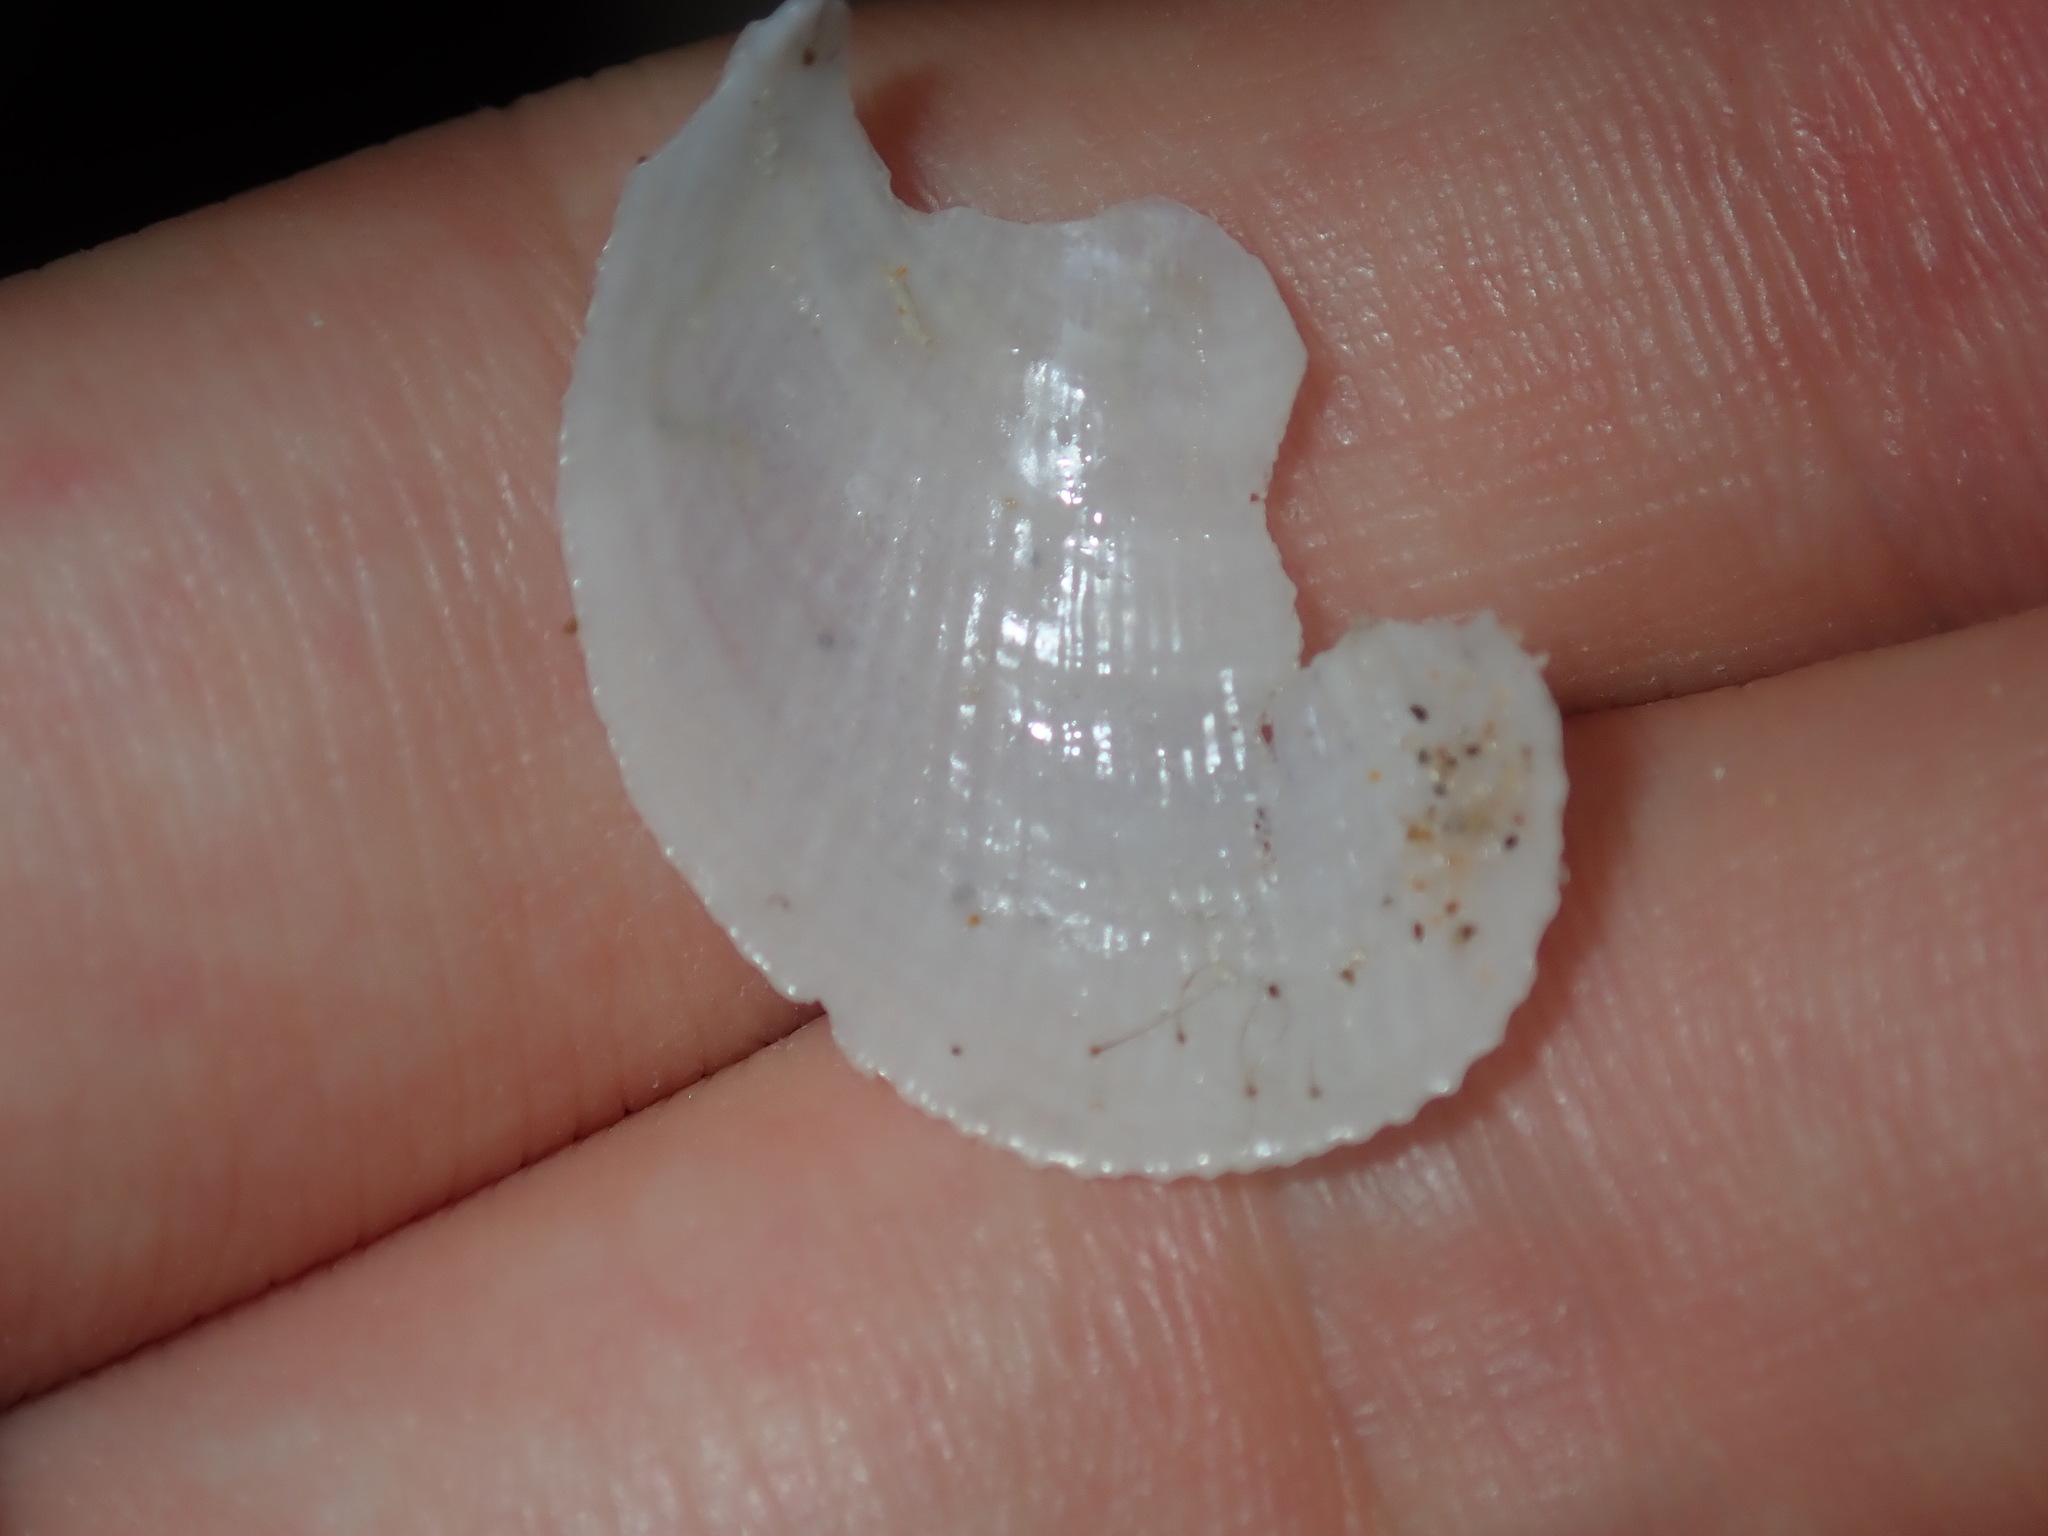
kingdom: Animalia
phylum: Mollusca
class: Bivalvia
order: Limida
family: Limidae
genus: Limaria
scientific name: Limaria orientalis
